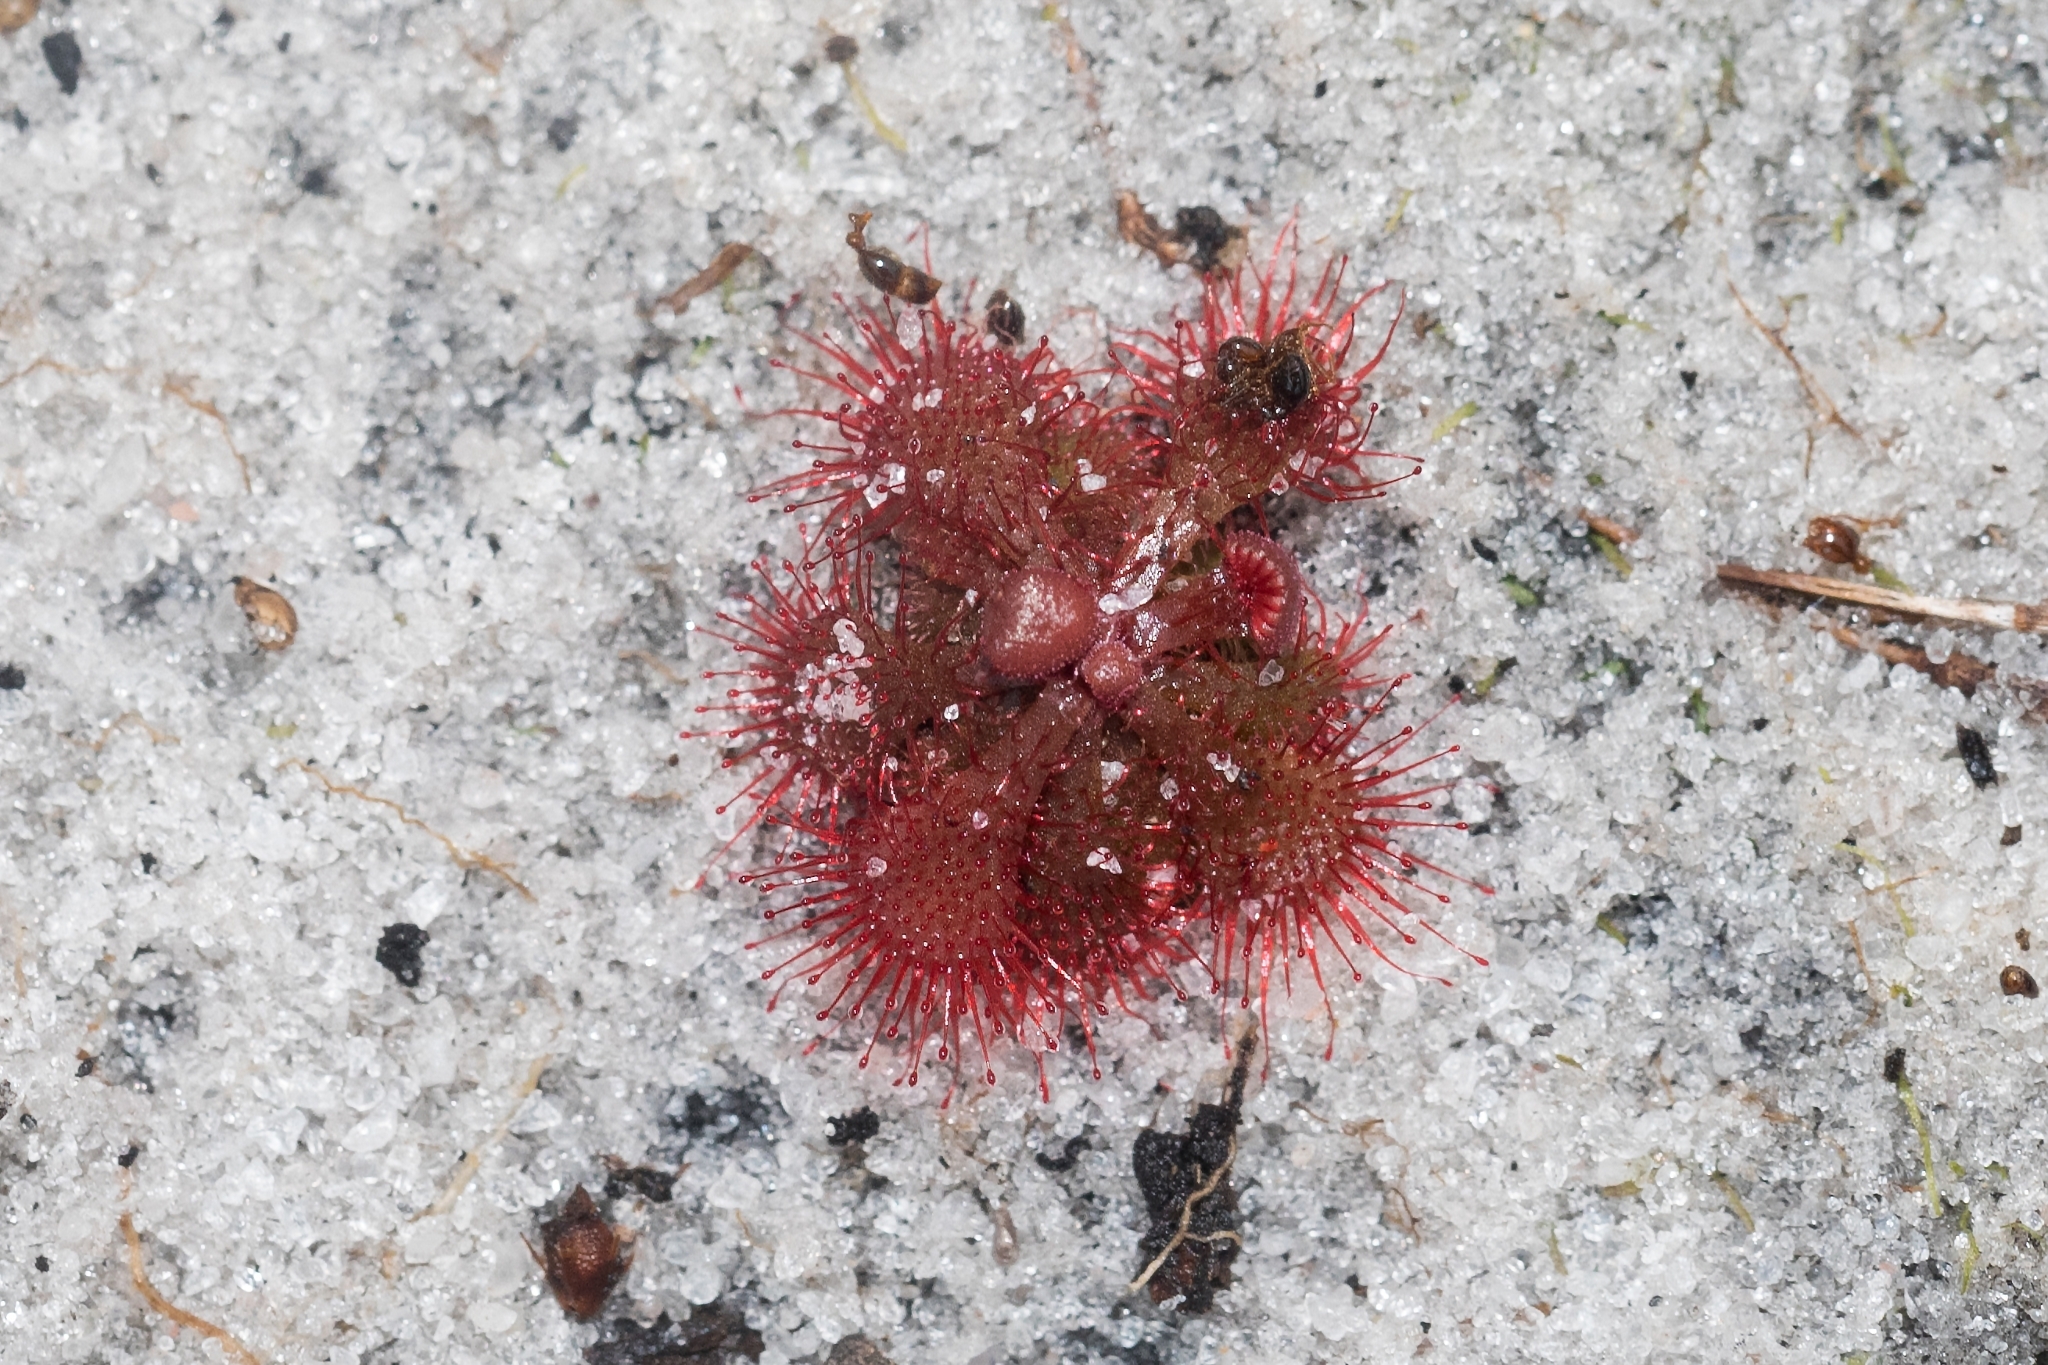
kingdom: Plantae
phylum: Tracheophyta
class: Magnoliopsida
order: Caryophyllales
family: Droseraceae
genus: Drosera
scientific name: Drosera brevifolia
